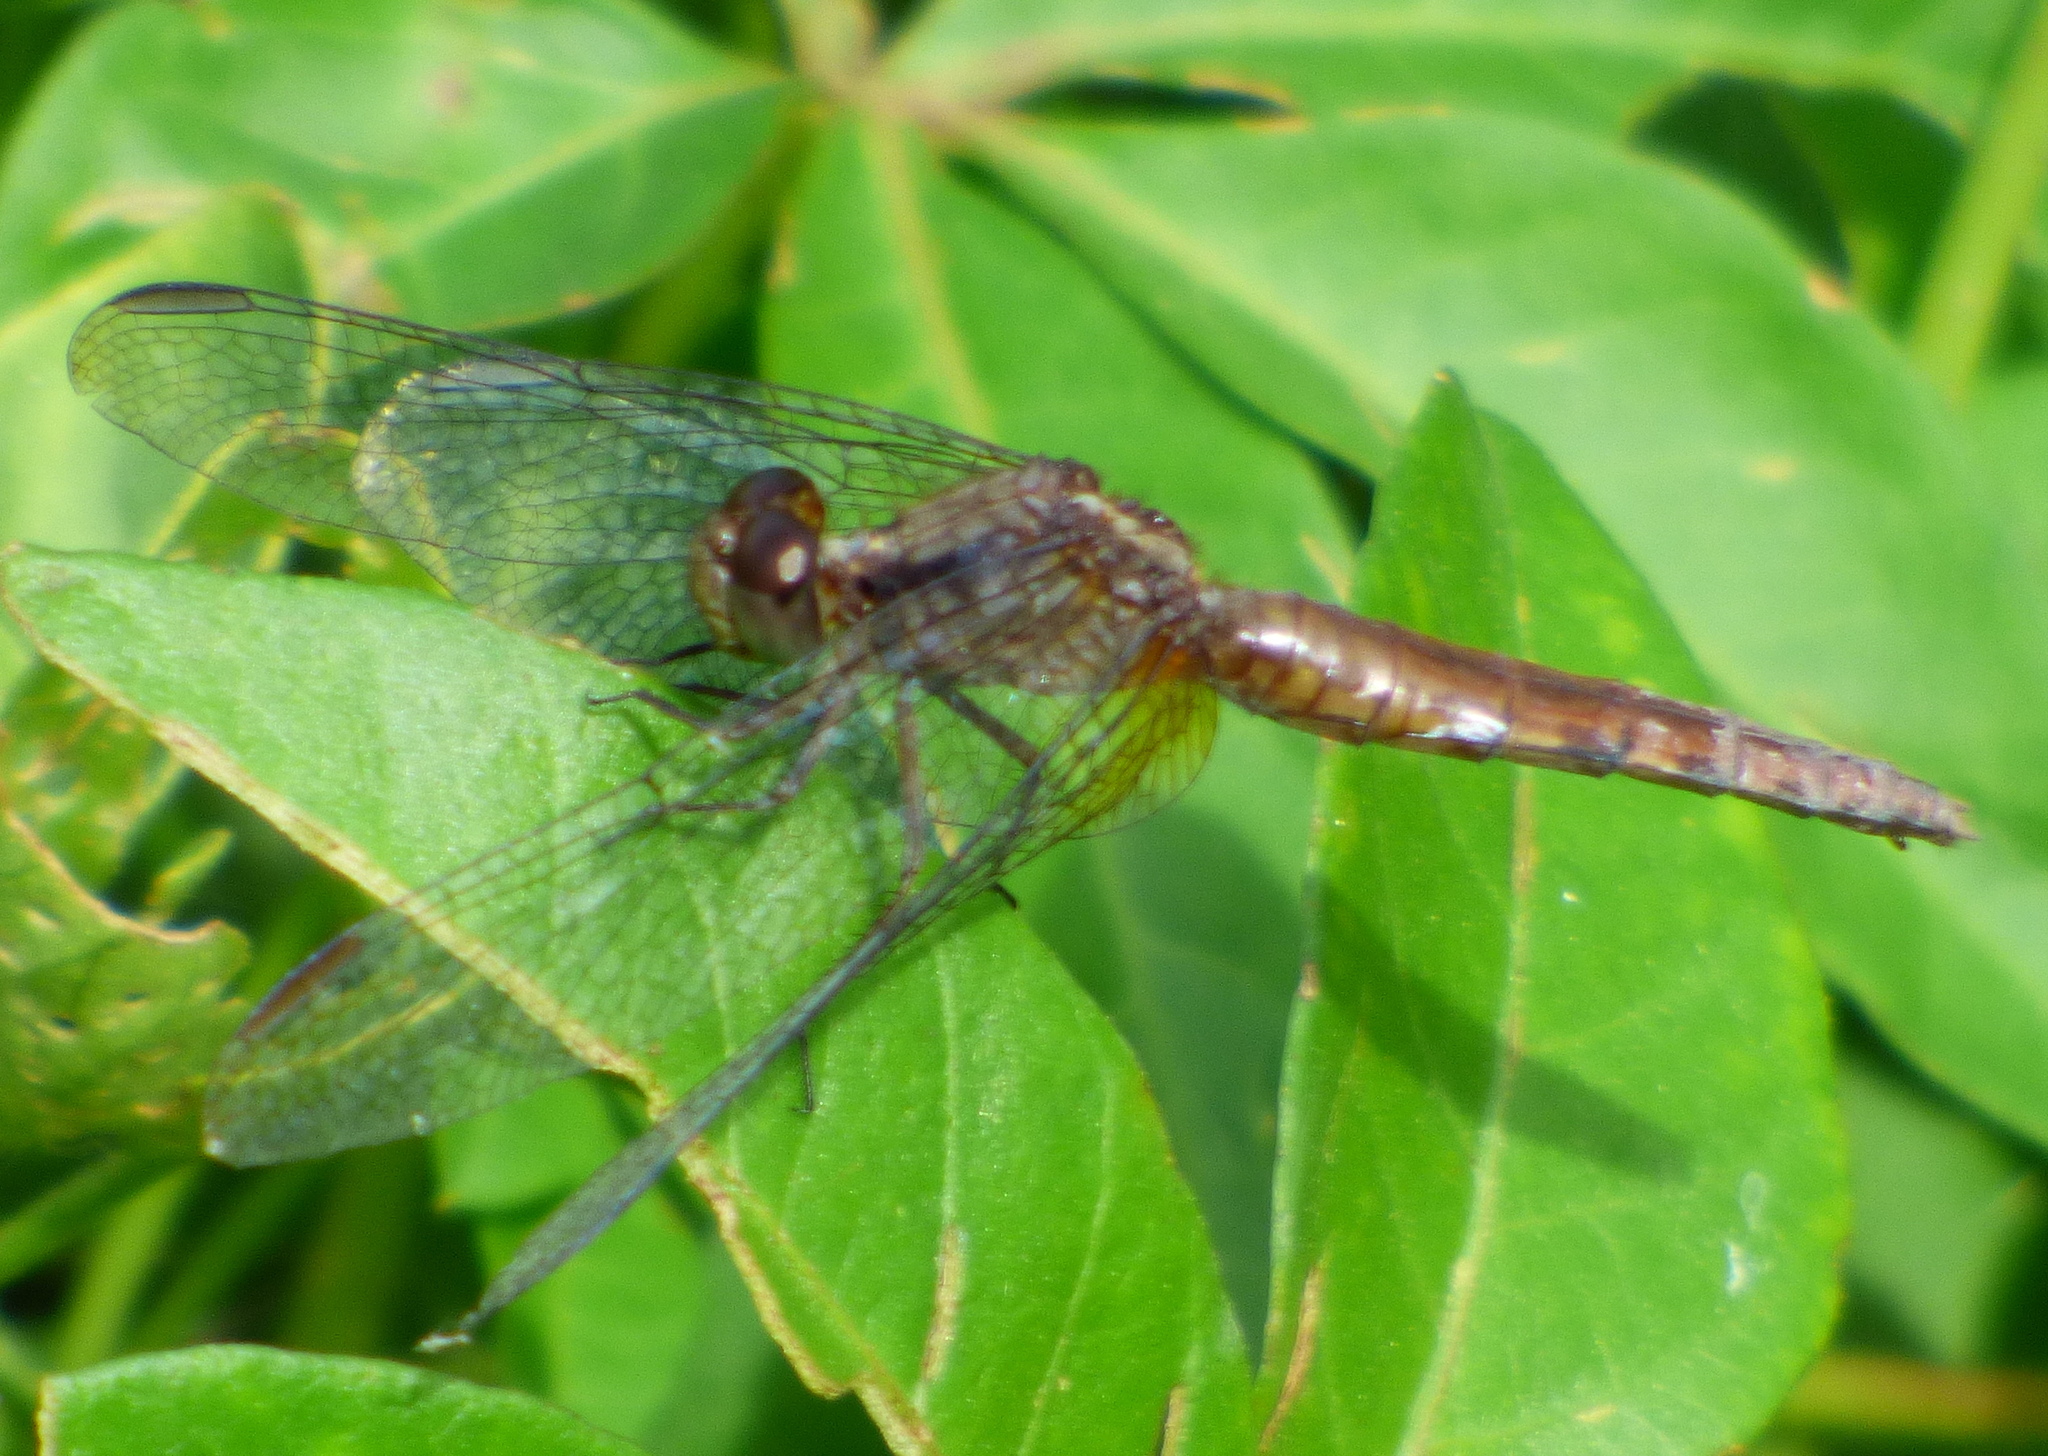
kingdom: Animalia
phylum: Arthropoda
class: Insecta
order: Odonata
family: Libellulidae
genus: Erythrodiplax
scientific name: Erythrodiplax media
